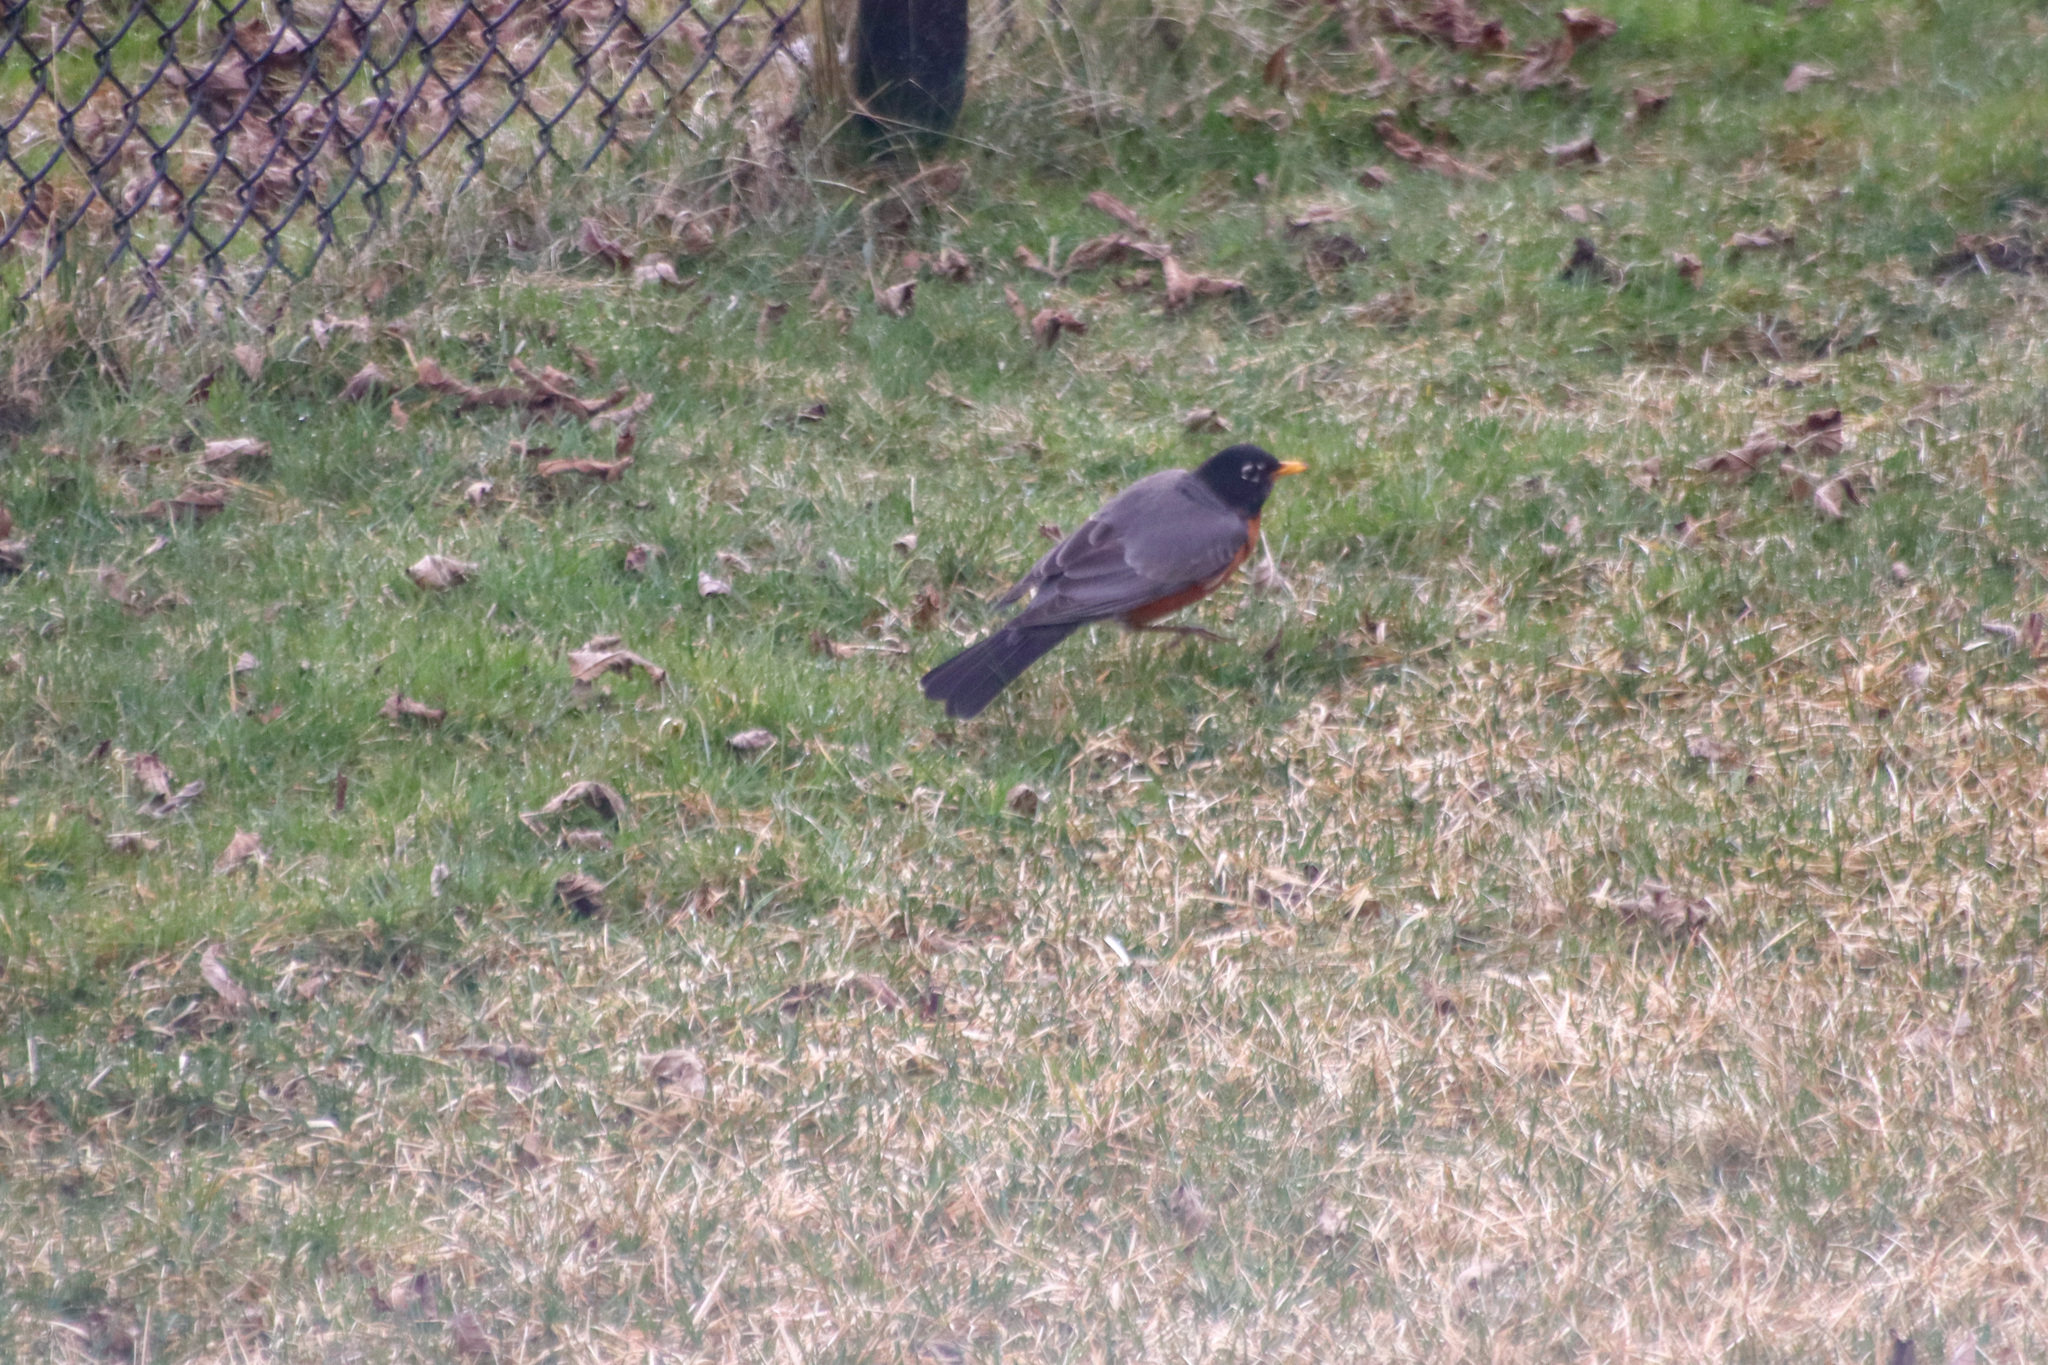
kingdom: Animalia
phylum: Chordata
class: Aves
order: Passeriformes
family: Turdidae
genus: Turdus
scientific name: Turdus migratorius
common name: American robin
